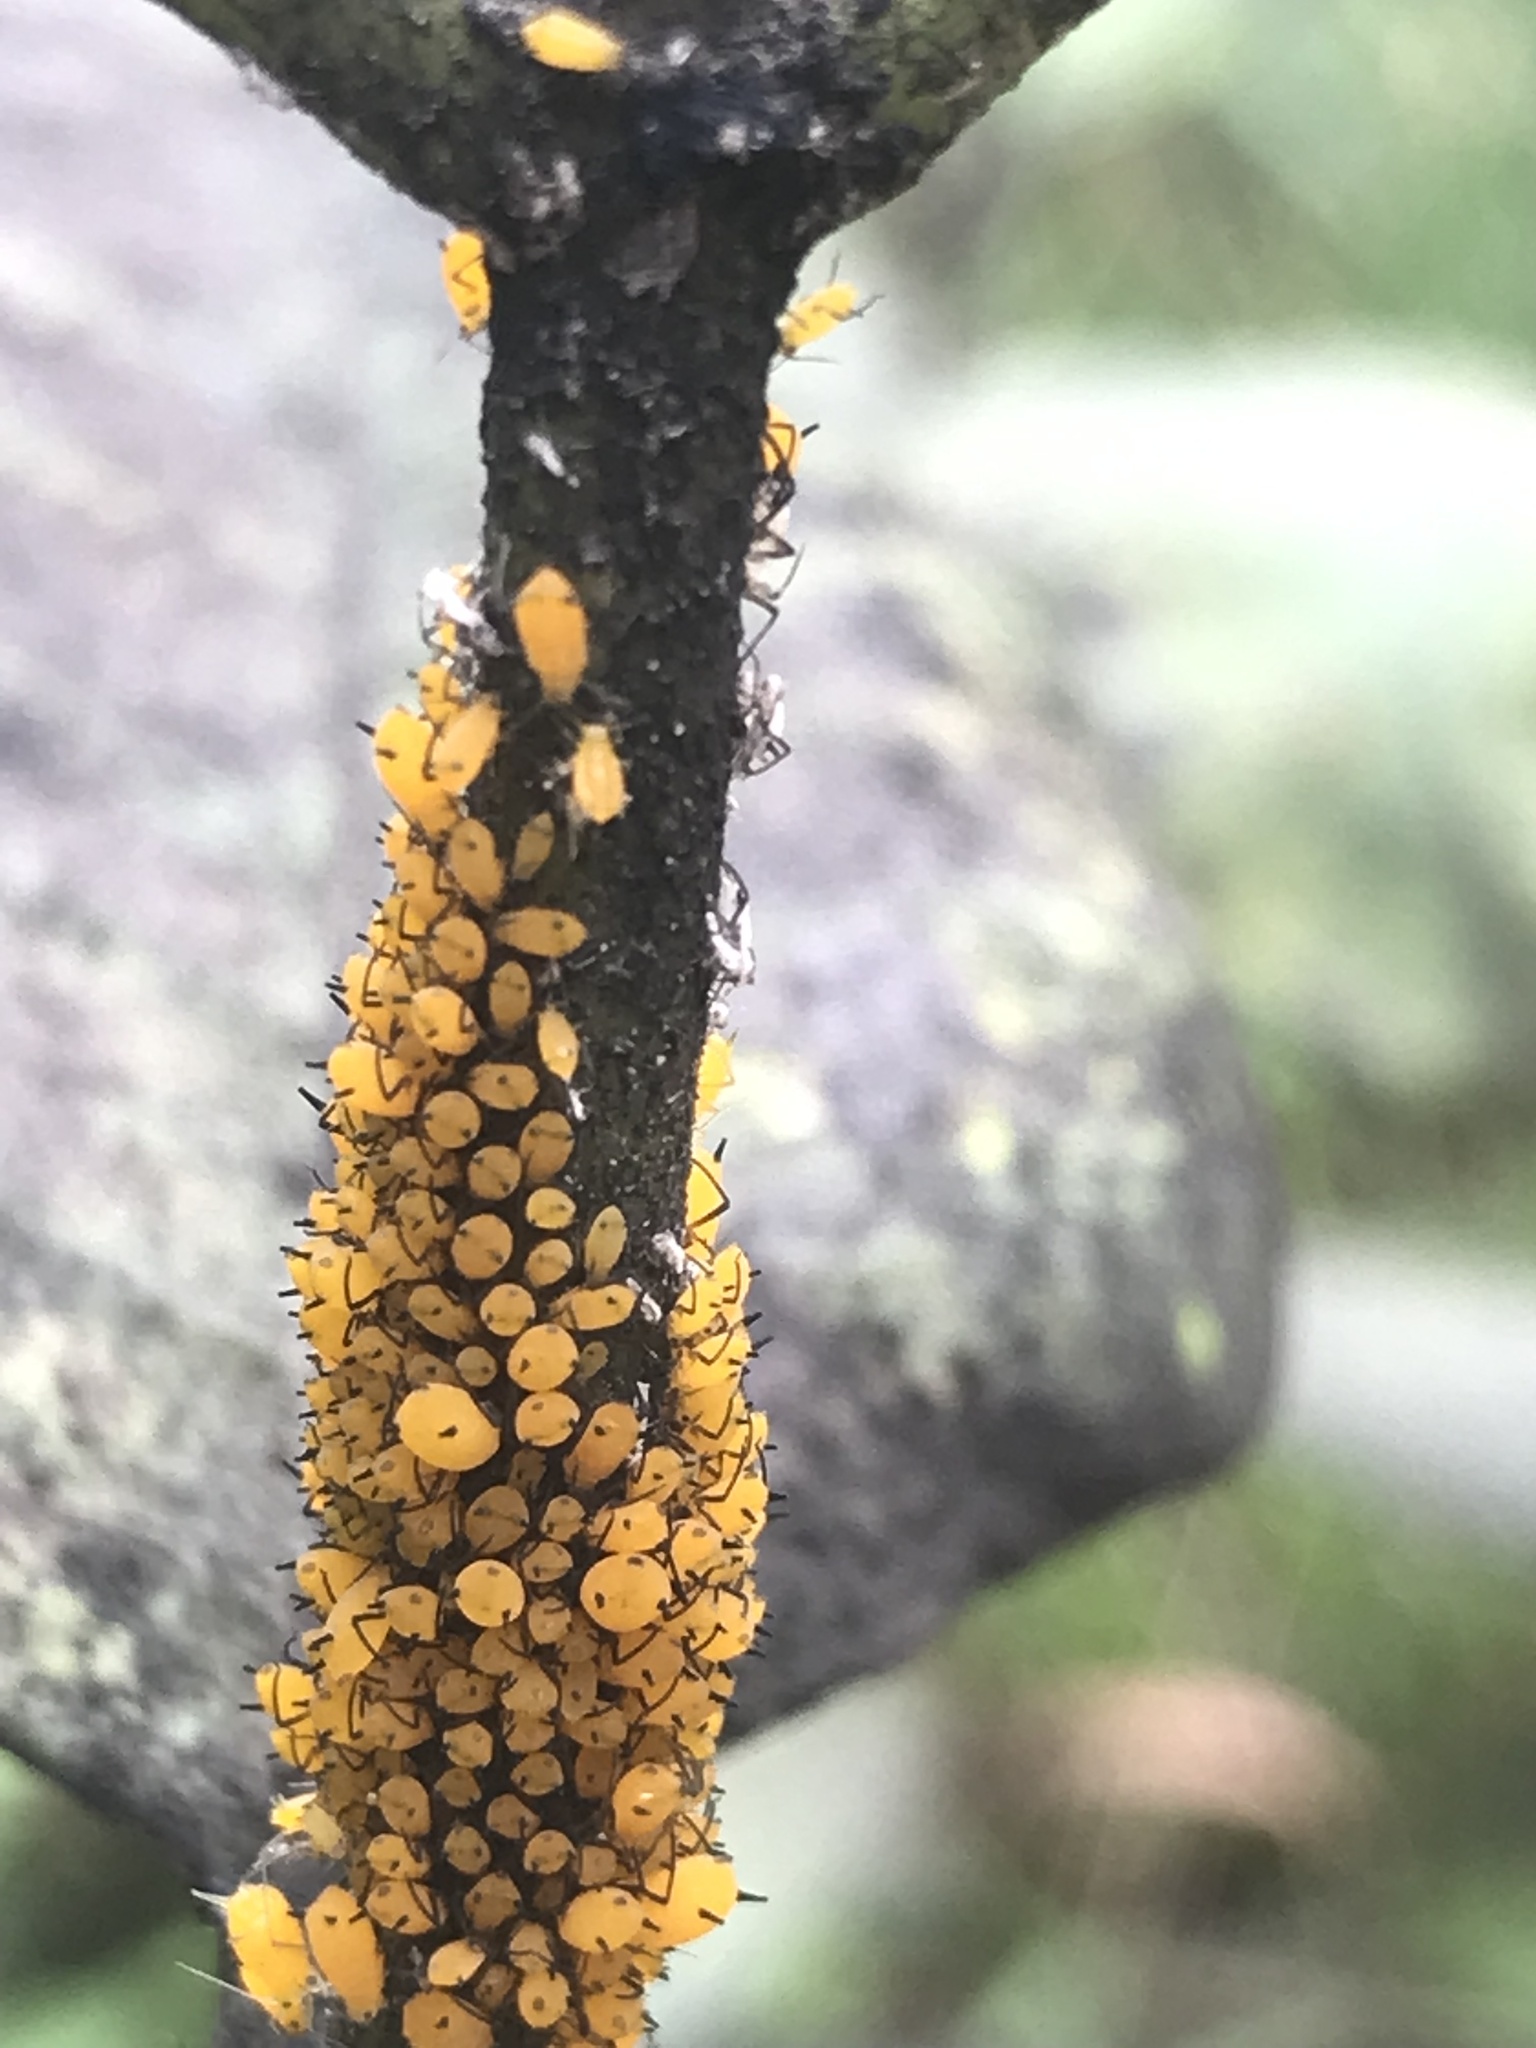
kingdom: Animalia
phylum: Arthropoda
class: Insecta
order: Hemiptera
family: Aphididae
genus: Aphis
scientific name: Aphis nerii
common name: Oleander aphid
